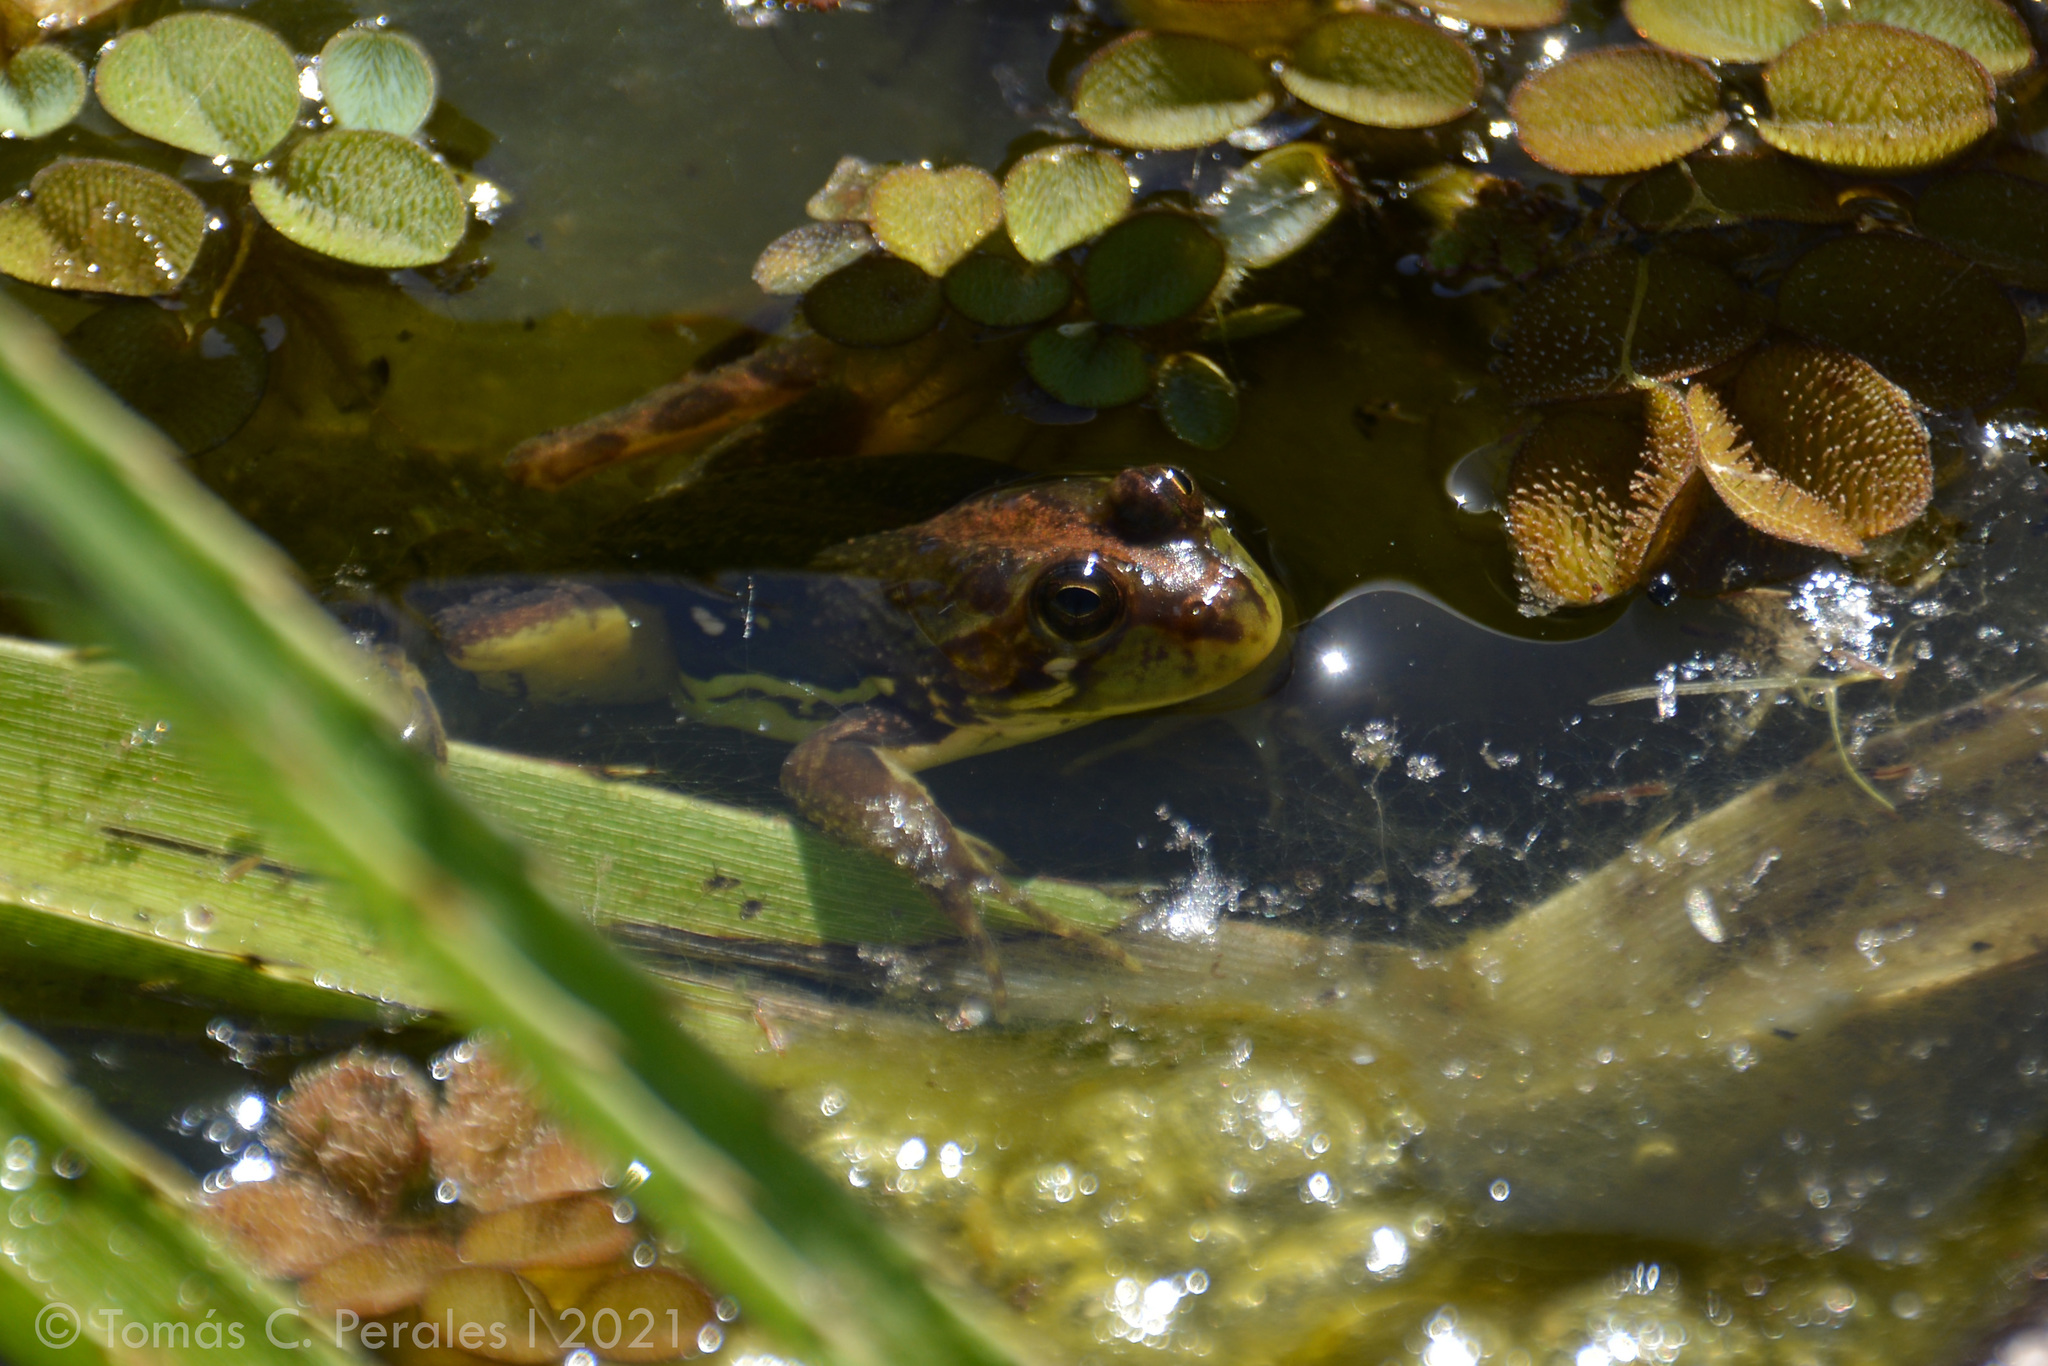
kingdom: Animalia
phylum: Chordata
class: Amphibia
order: Anura
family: Hylidae
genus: Pseudis
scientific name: Pseudis minuta
